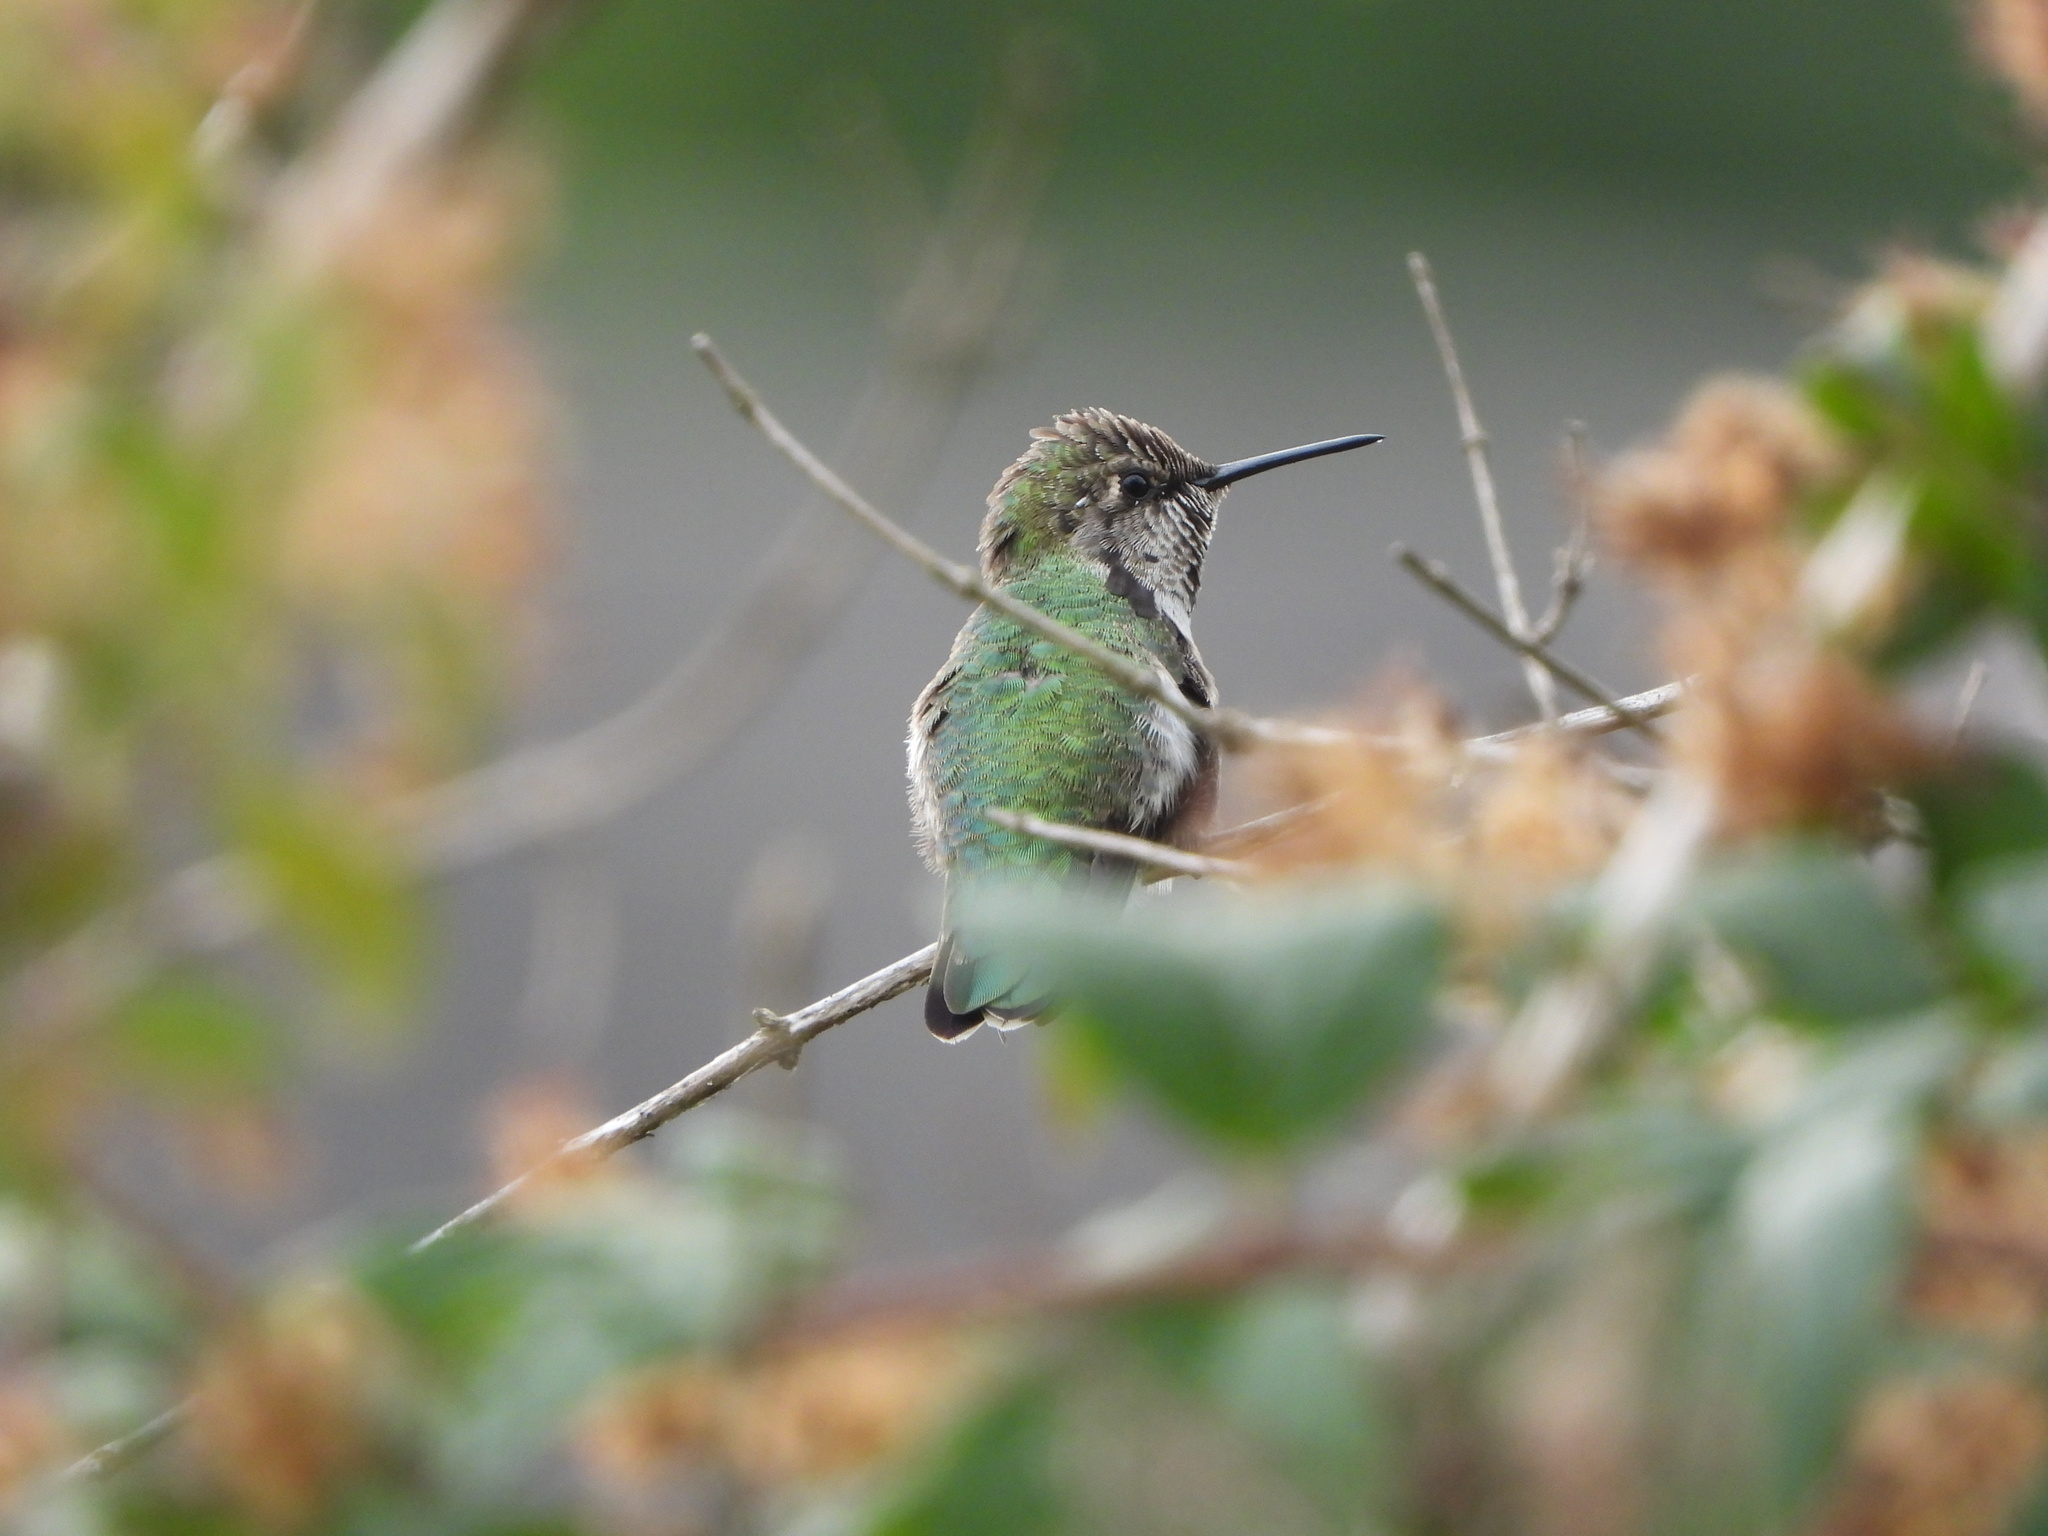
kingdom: Animalia
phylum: Chordata
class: Aves
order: Apodiformes
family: Trochilidae
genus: Calypte
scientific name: Calypte anna
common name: Anna's hummingbird
